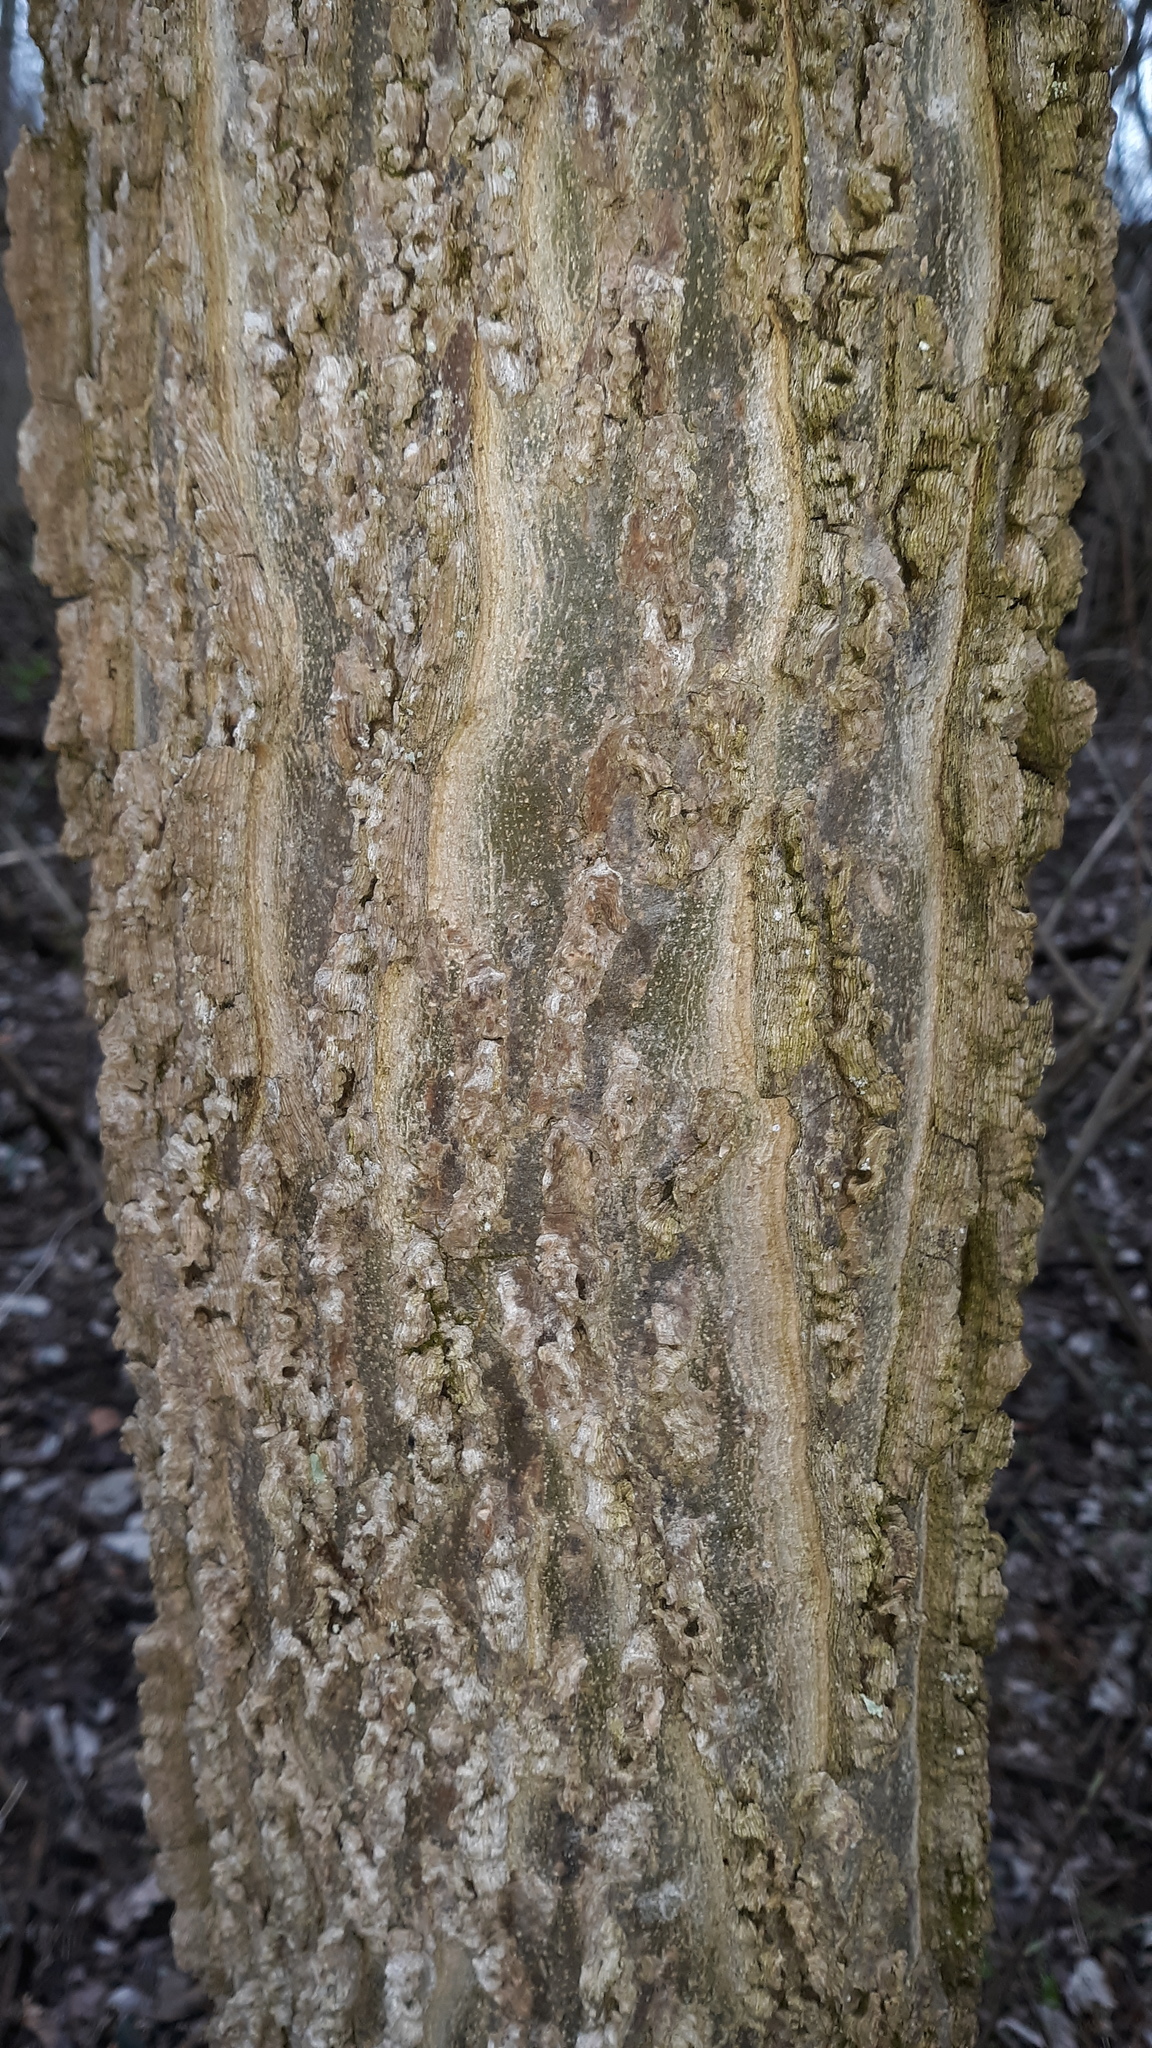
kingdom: Plantae
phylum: Tracheophyta
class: Magnoliopsida
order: Rosales
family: Cannabaceae
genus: Celtis
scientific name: Celtis occidentalis
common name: Common hackberry
